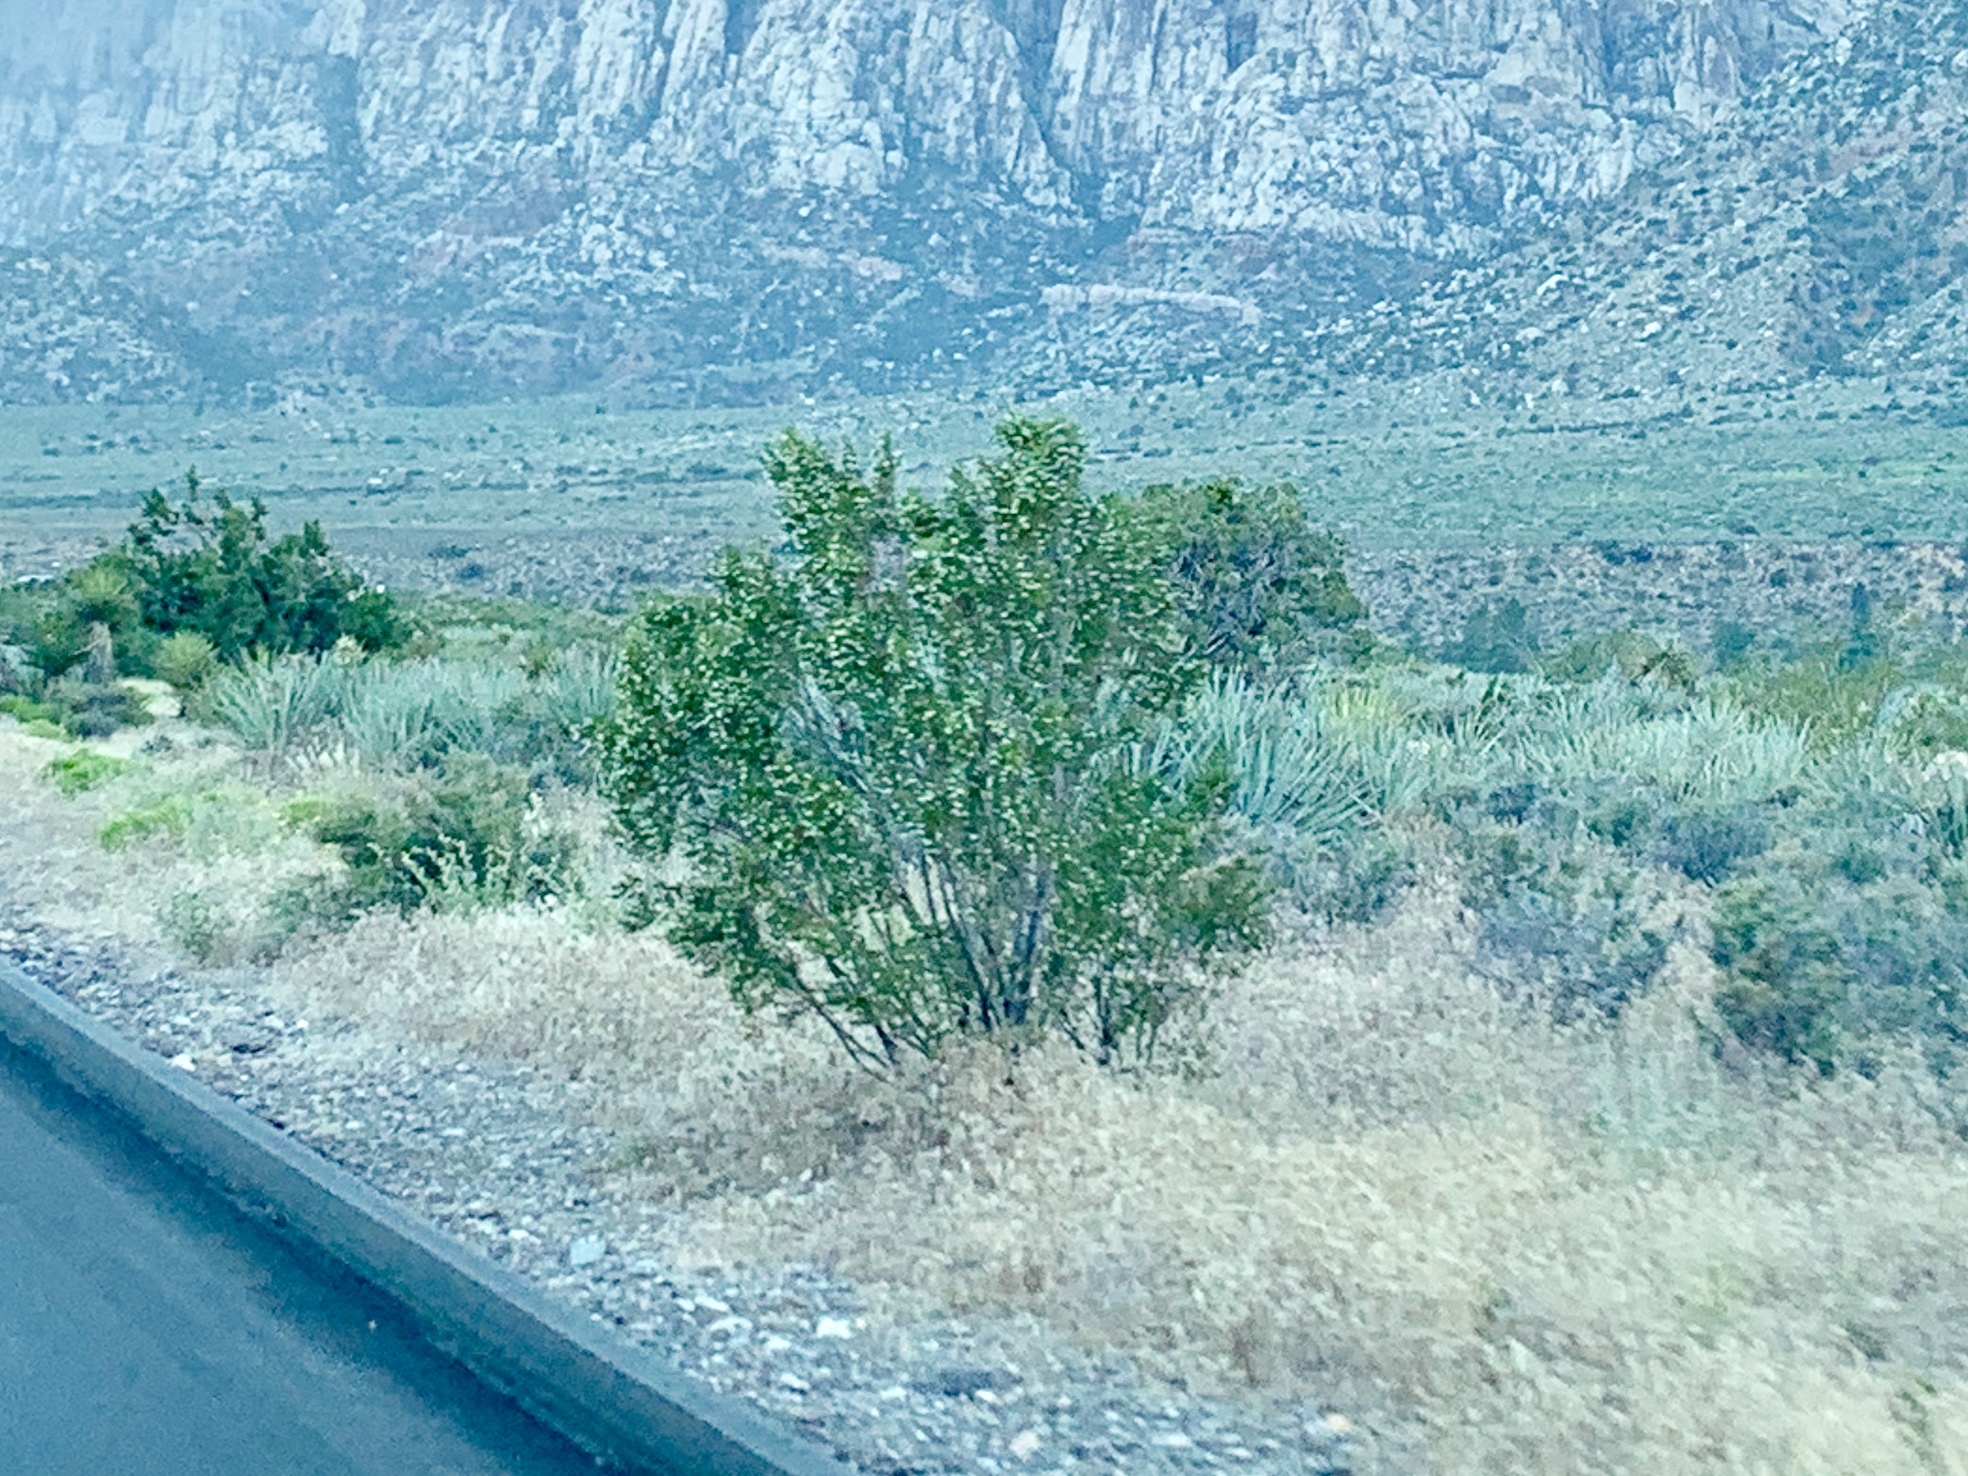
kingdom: Plantae
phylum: Tracheophyta
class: Magnoliopsida
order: Zygophyllales
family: Zygophyllaceae
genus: Larrea
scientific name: Larrea tridentata
